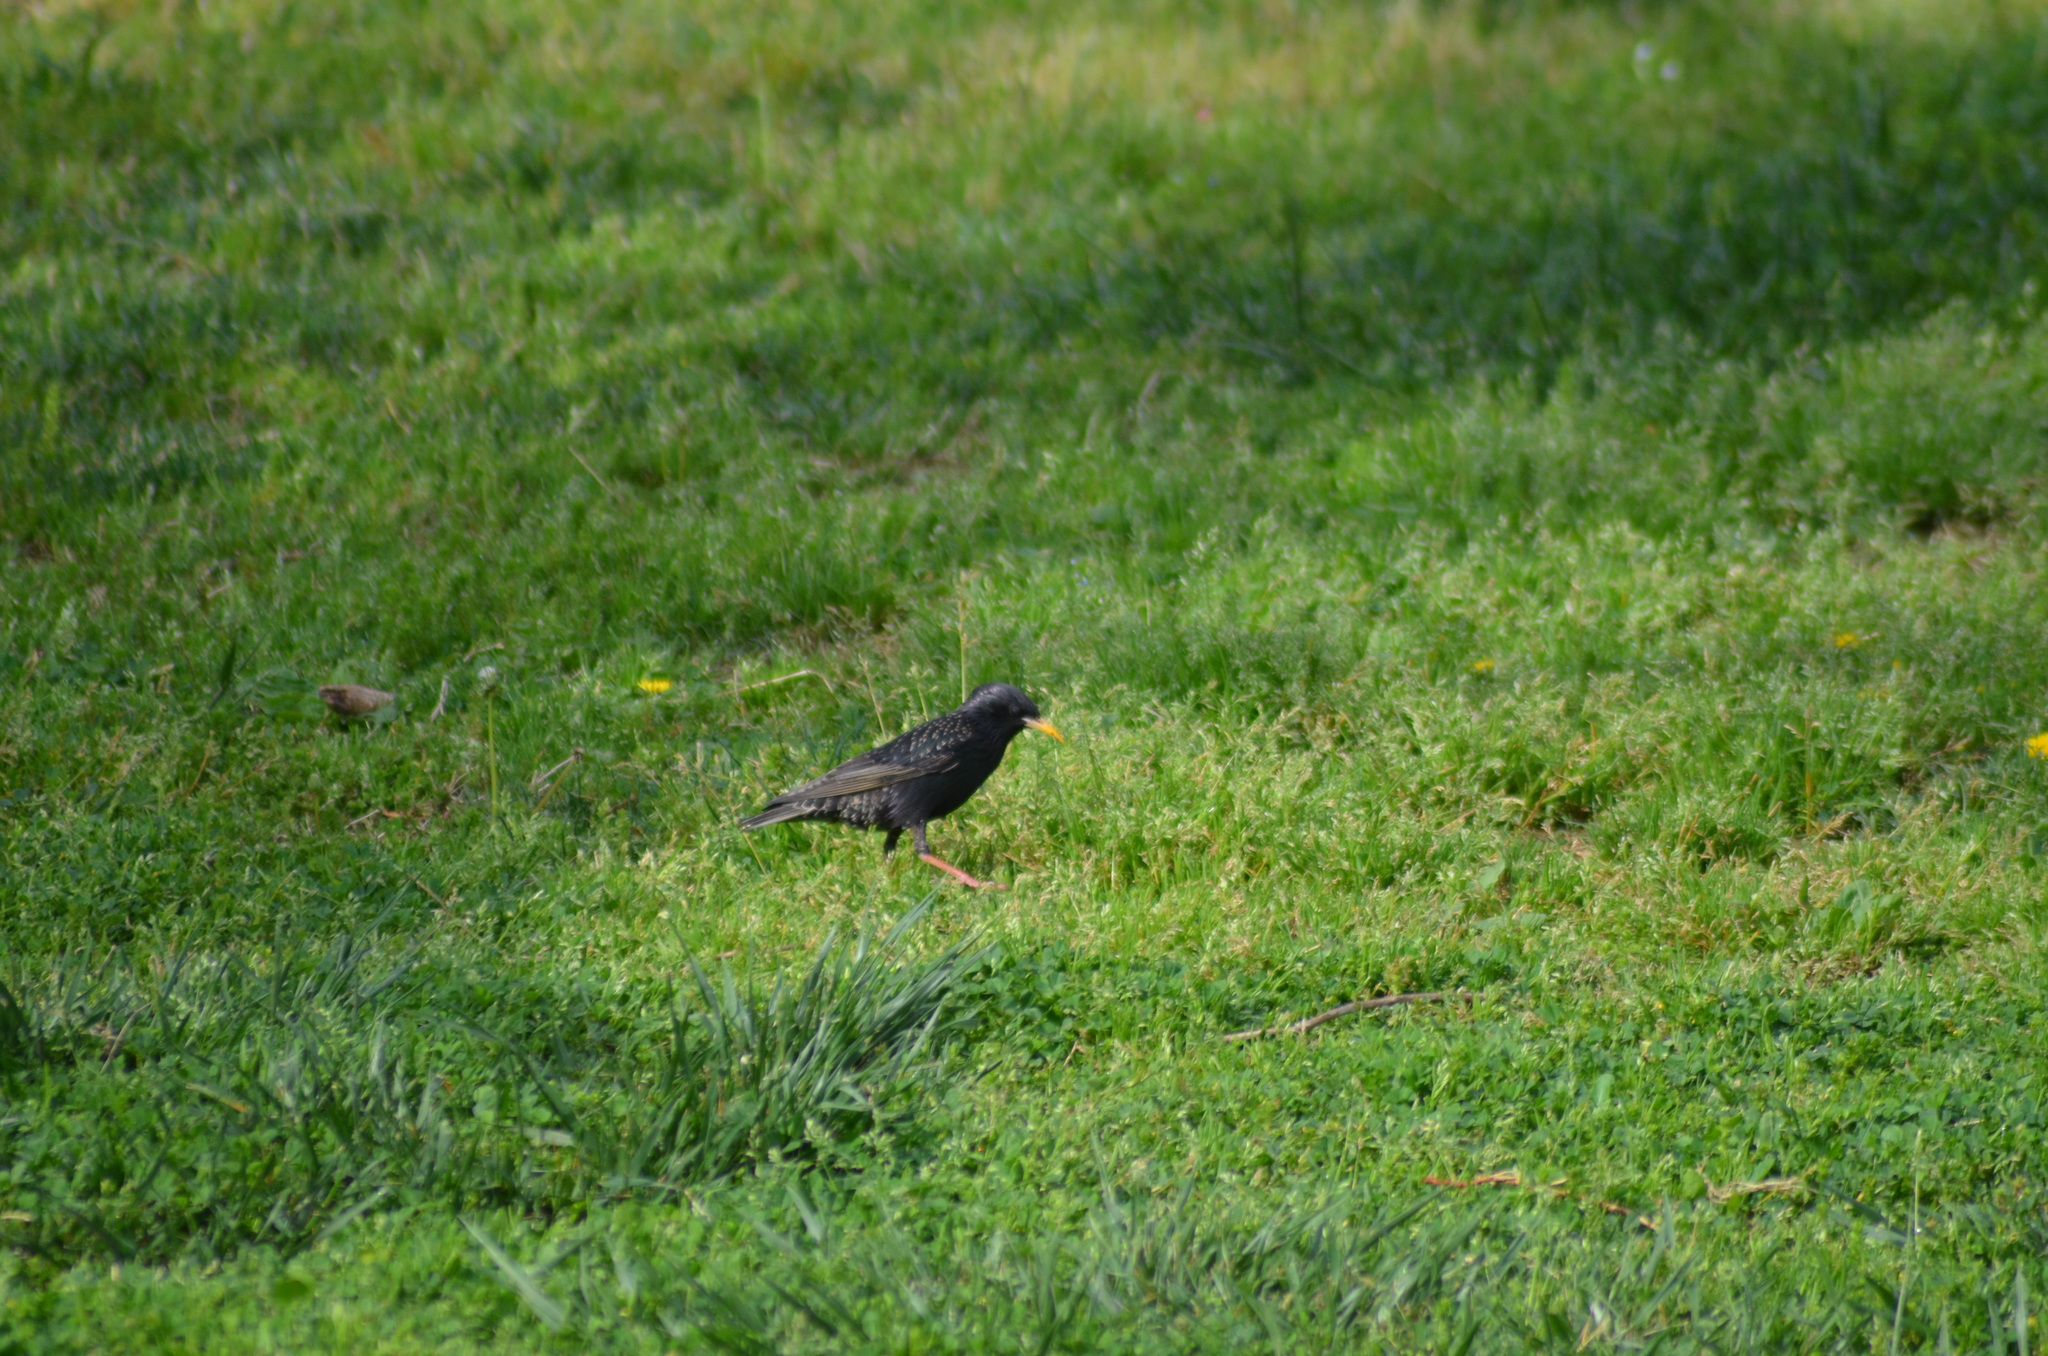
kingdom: Animalia
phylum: Chordata
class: Aves
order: Passeriformes
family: Sturnidae
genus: Sturnus
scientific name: Sturnus vulgaris
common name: Common starling
